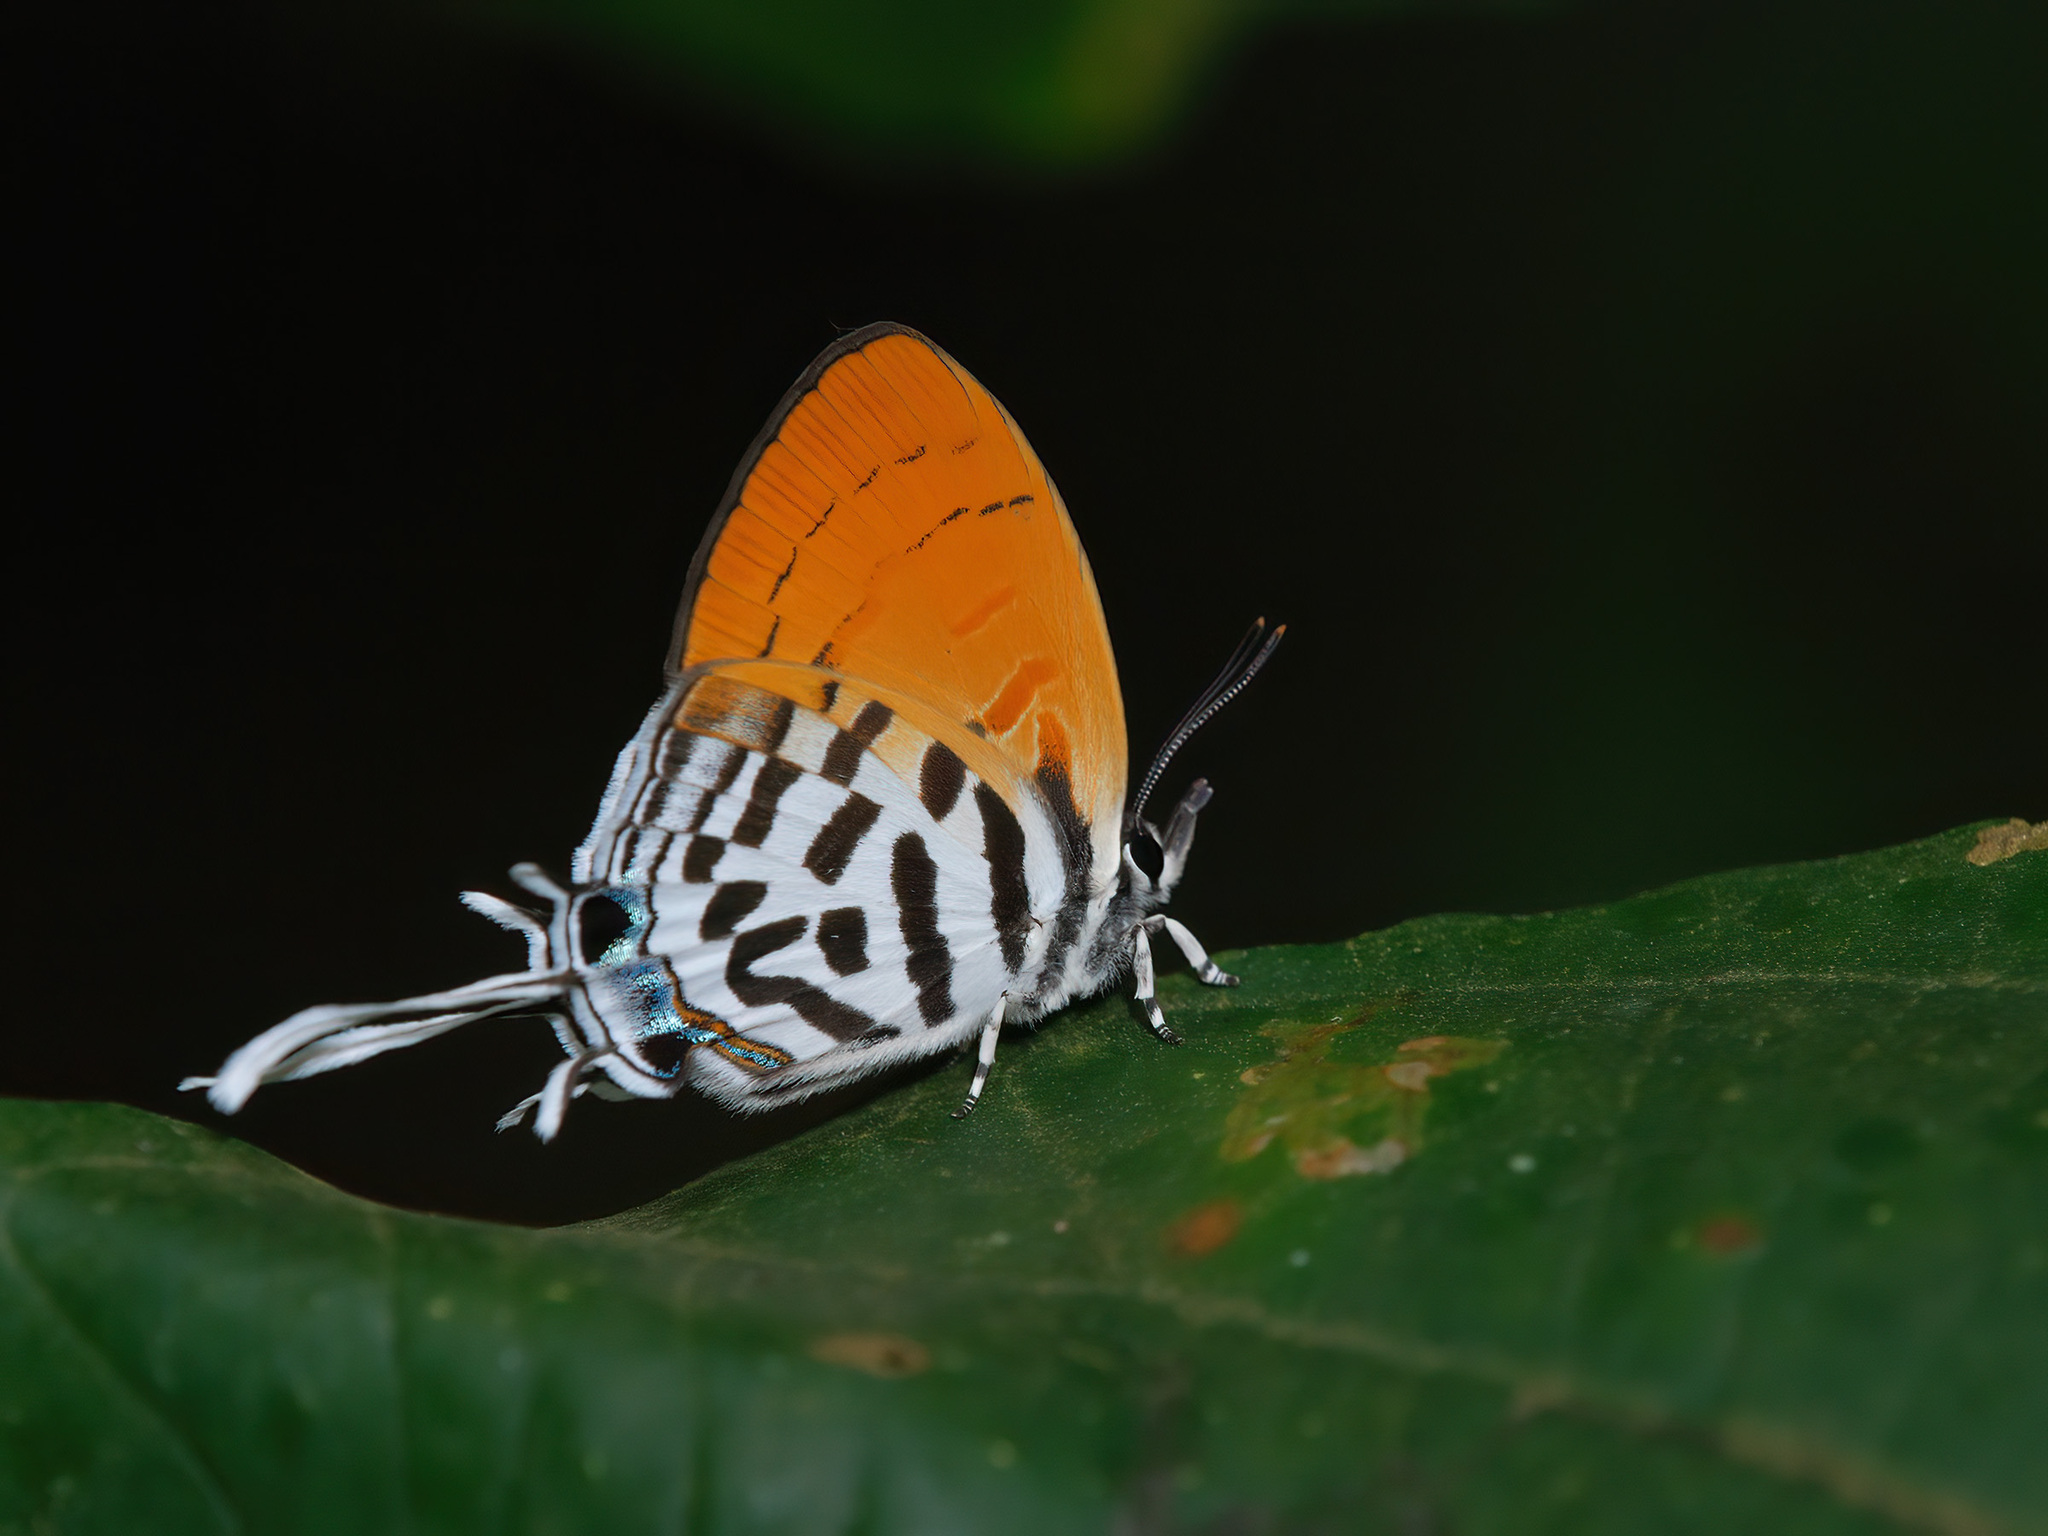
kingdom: Animalia
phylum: Arthropoda
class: Insecta
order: Lepidoptera
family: Lycaenidae
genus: Drupadia
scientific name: Drupadia ravindra
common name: Common posy
